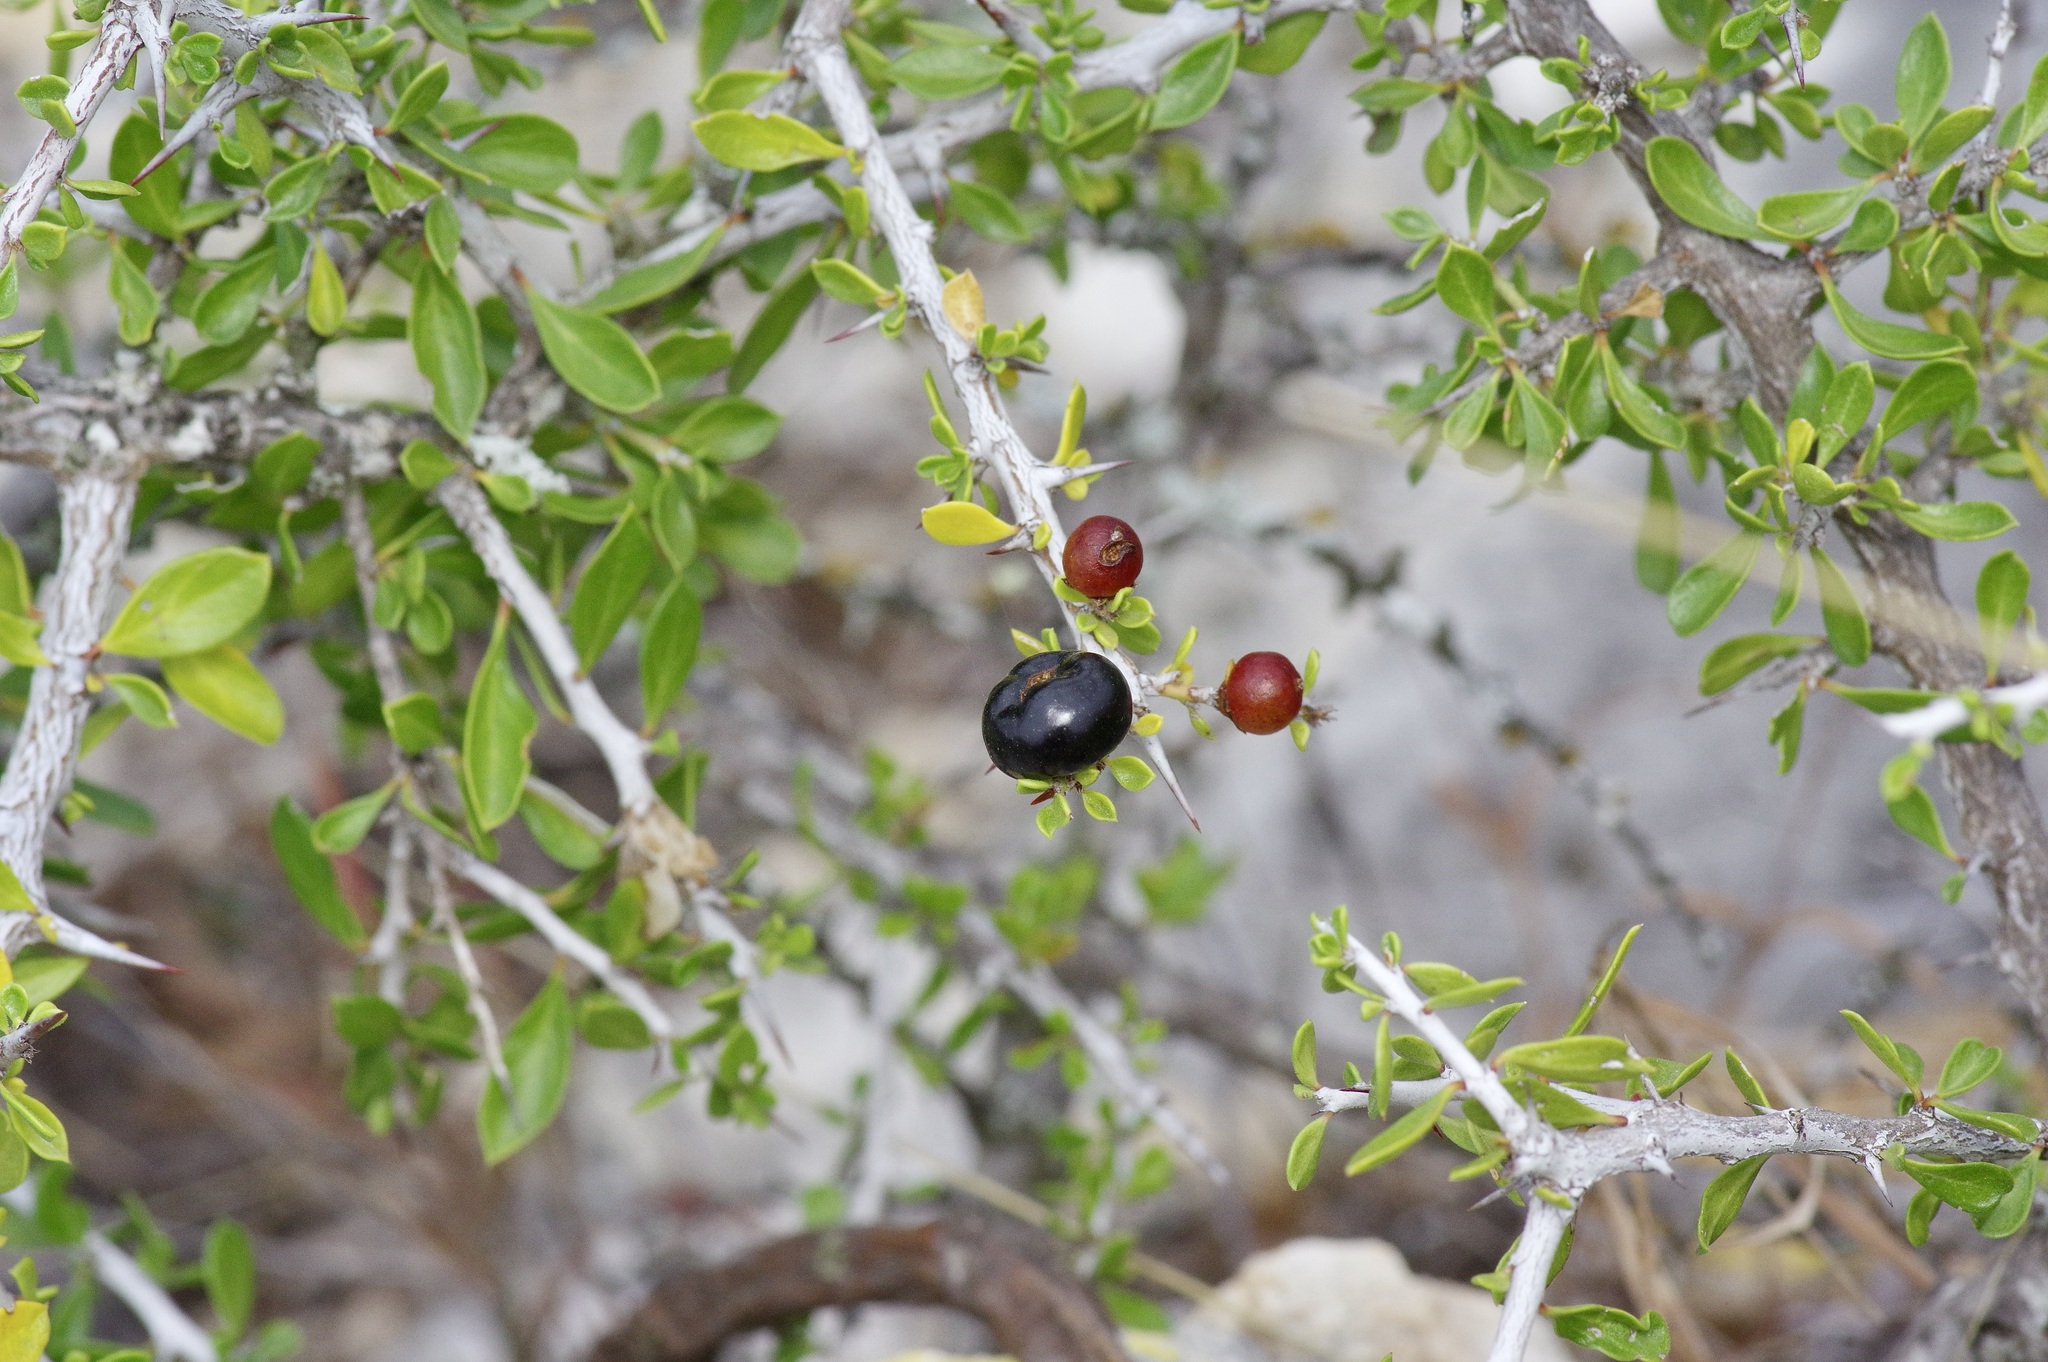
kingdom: Plantae
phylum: Tracheophyta
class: Magnoliopsida
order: Rosales
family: Rhamnaceae
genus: Condalia
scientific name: Condalia viridis
